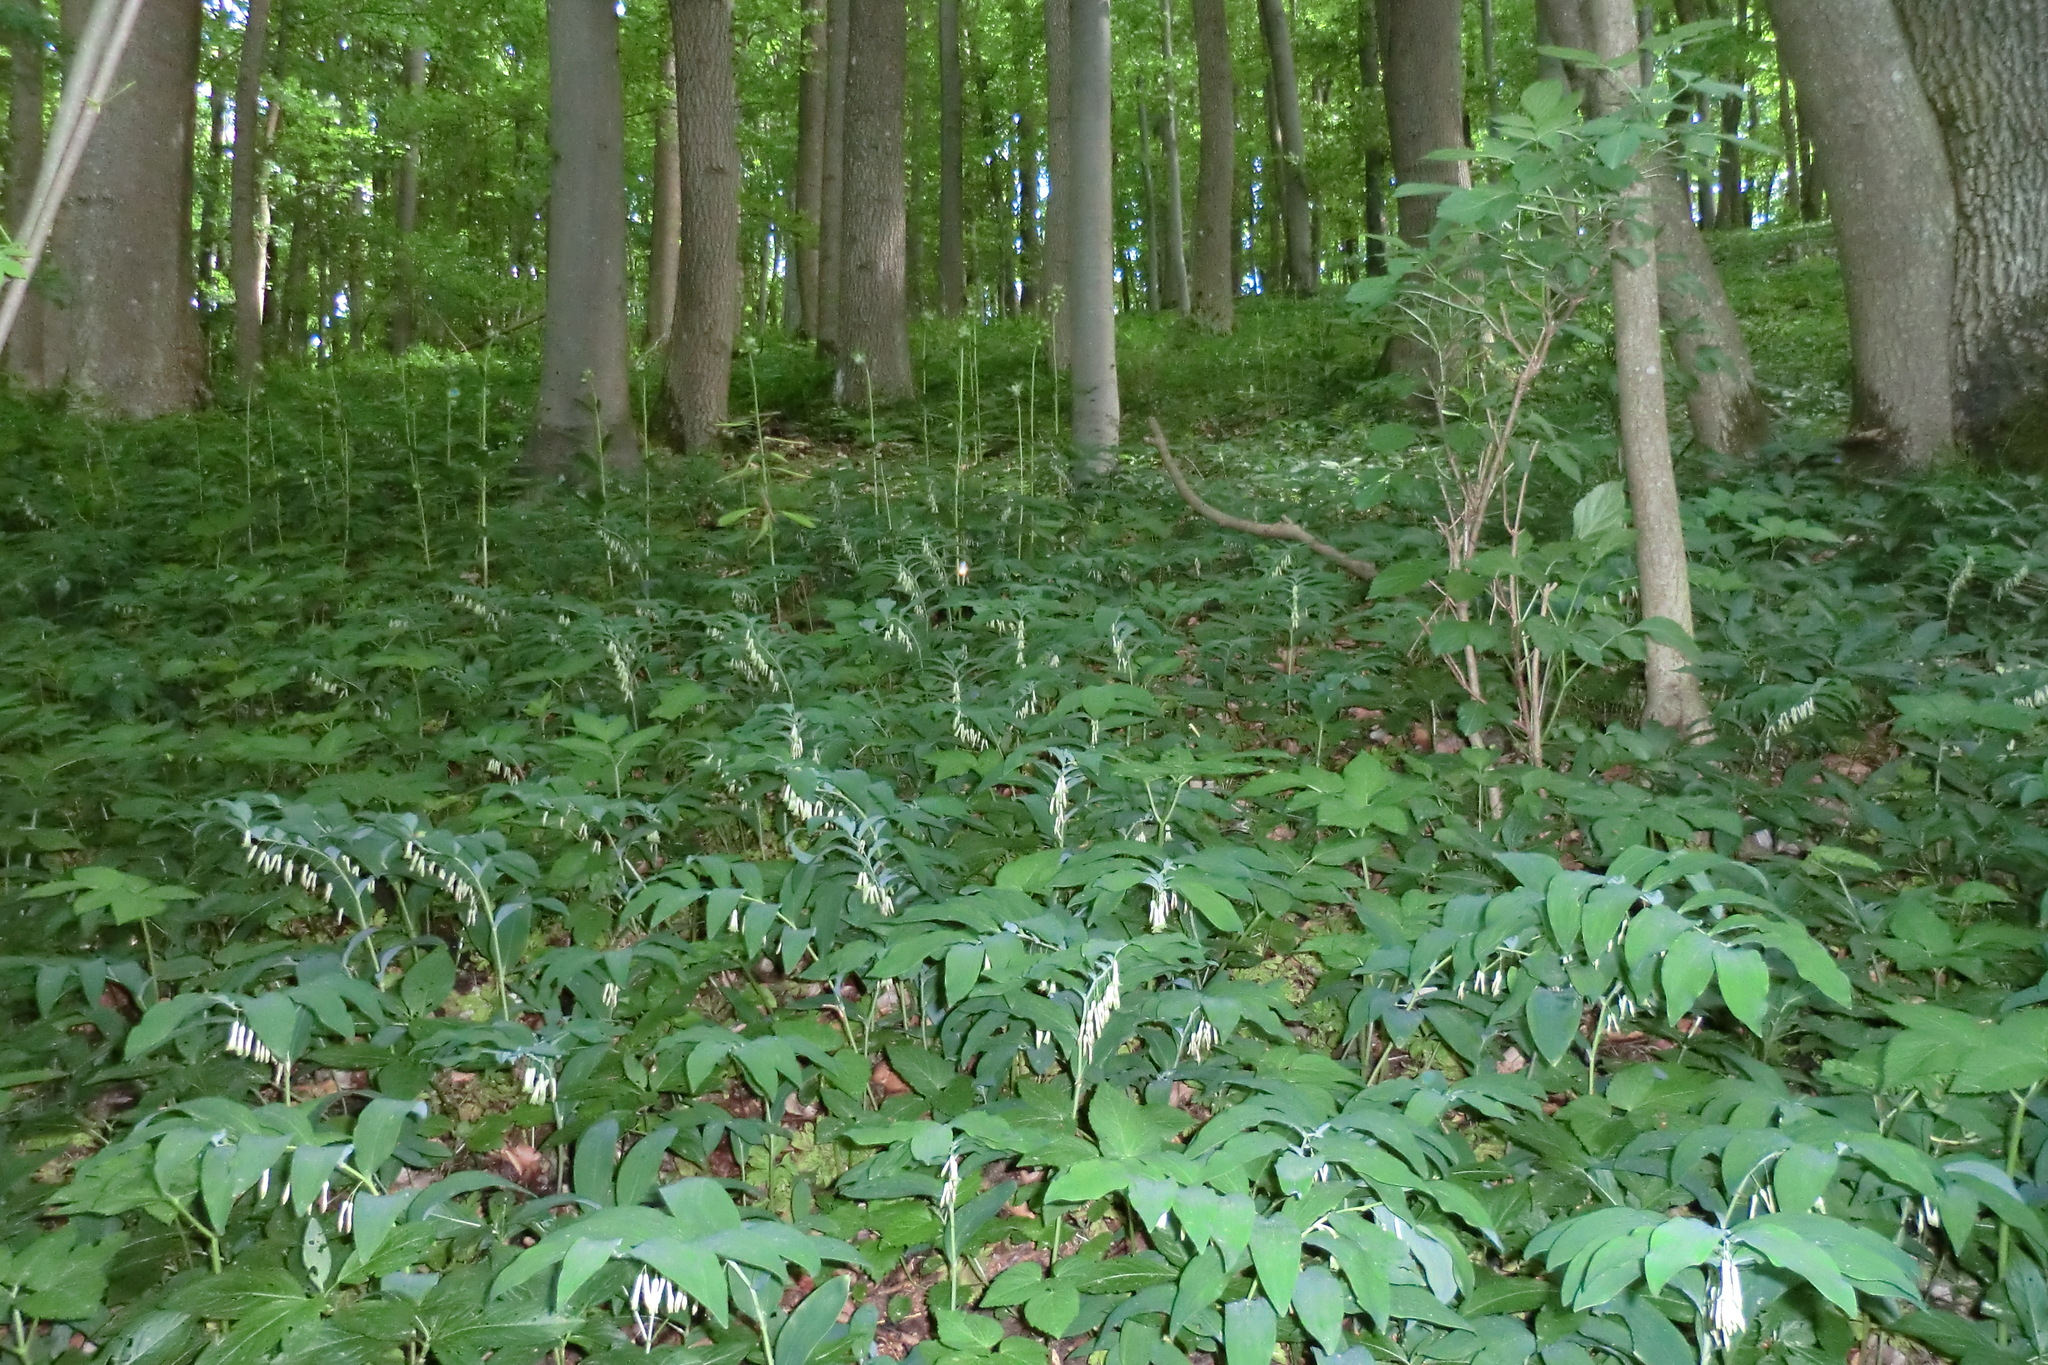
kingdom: Plantae
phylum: Tracheophyta
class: Liliopsida
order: Asparagales
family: Asparagaceae
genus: Polygonatum
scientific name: Polygonatum multiflorum
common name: Solomon's-seal
